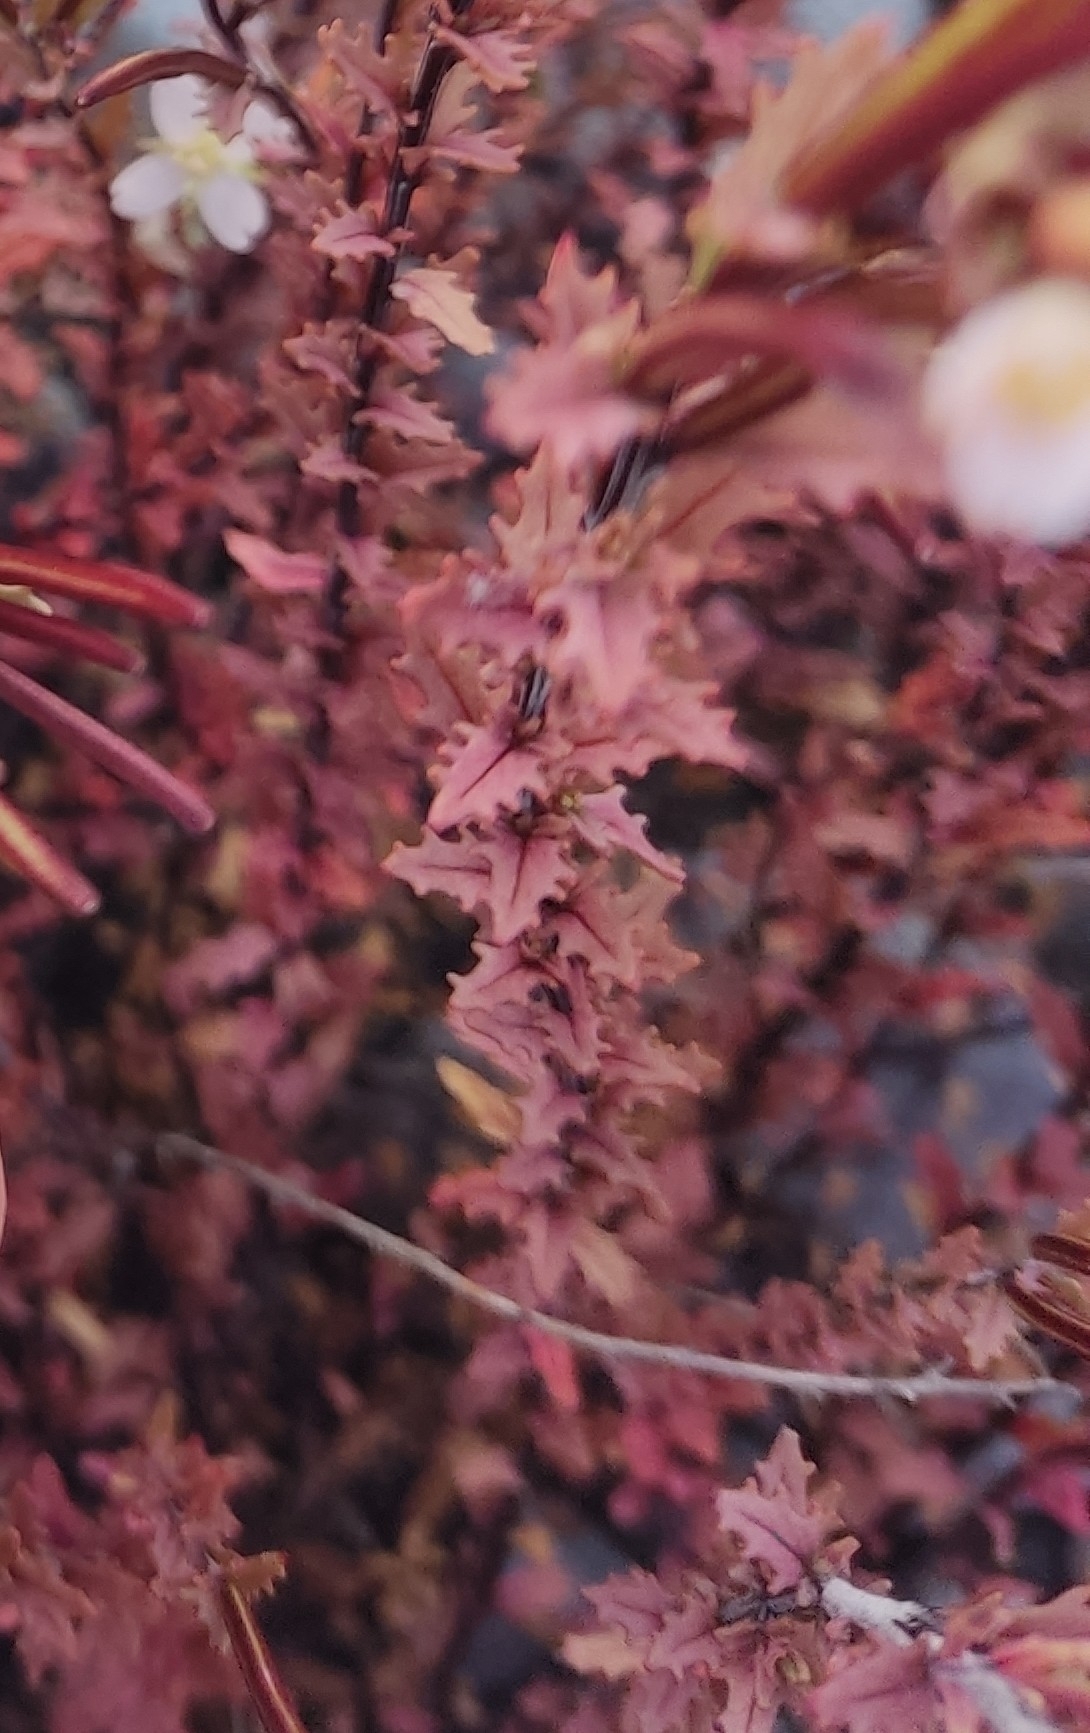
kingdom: Plantae
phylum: Tracheophyta
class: Magnoliopsida
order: Myrtales
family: Onagraceae
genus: Epilobium
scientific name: Epilobium melanocaulon
